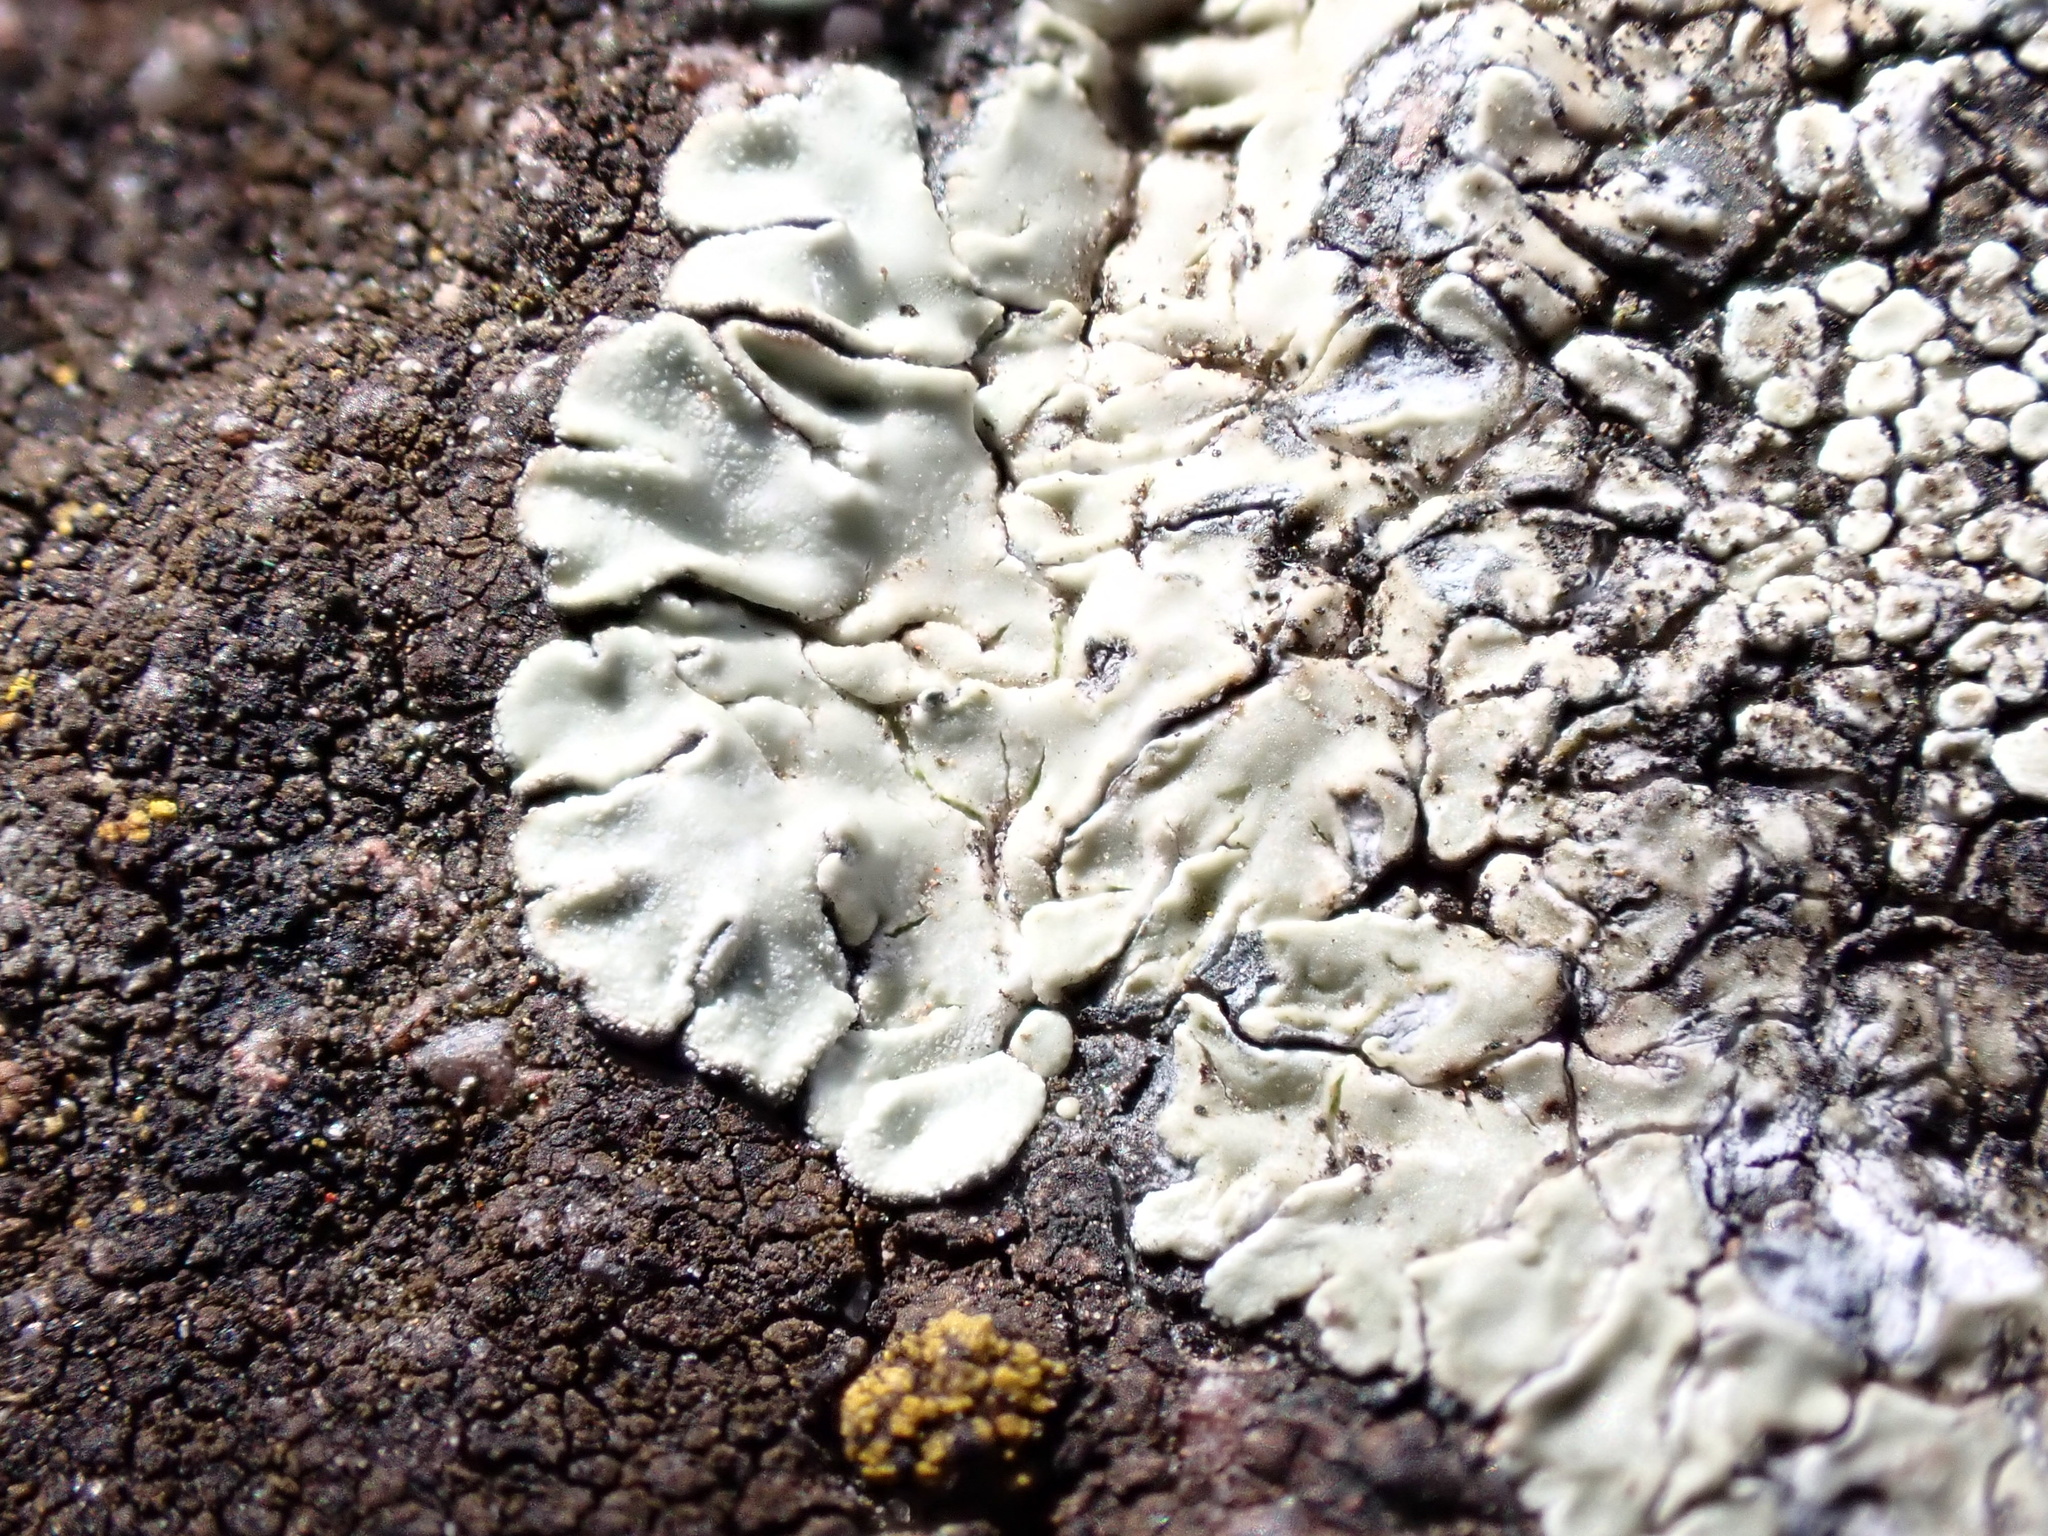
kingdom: Fungi
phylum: Ascomycota
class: Lecanoromycetes
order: Lecanorales
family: Lecanoraceae
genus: Protoparmeliopsis
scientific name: Protoparmeliopsis muralis
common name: Stonewall rim lichen
